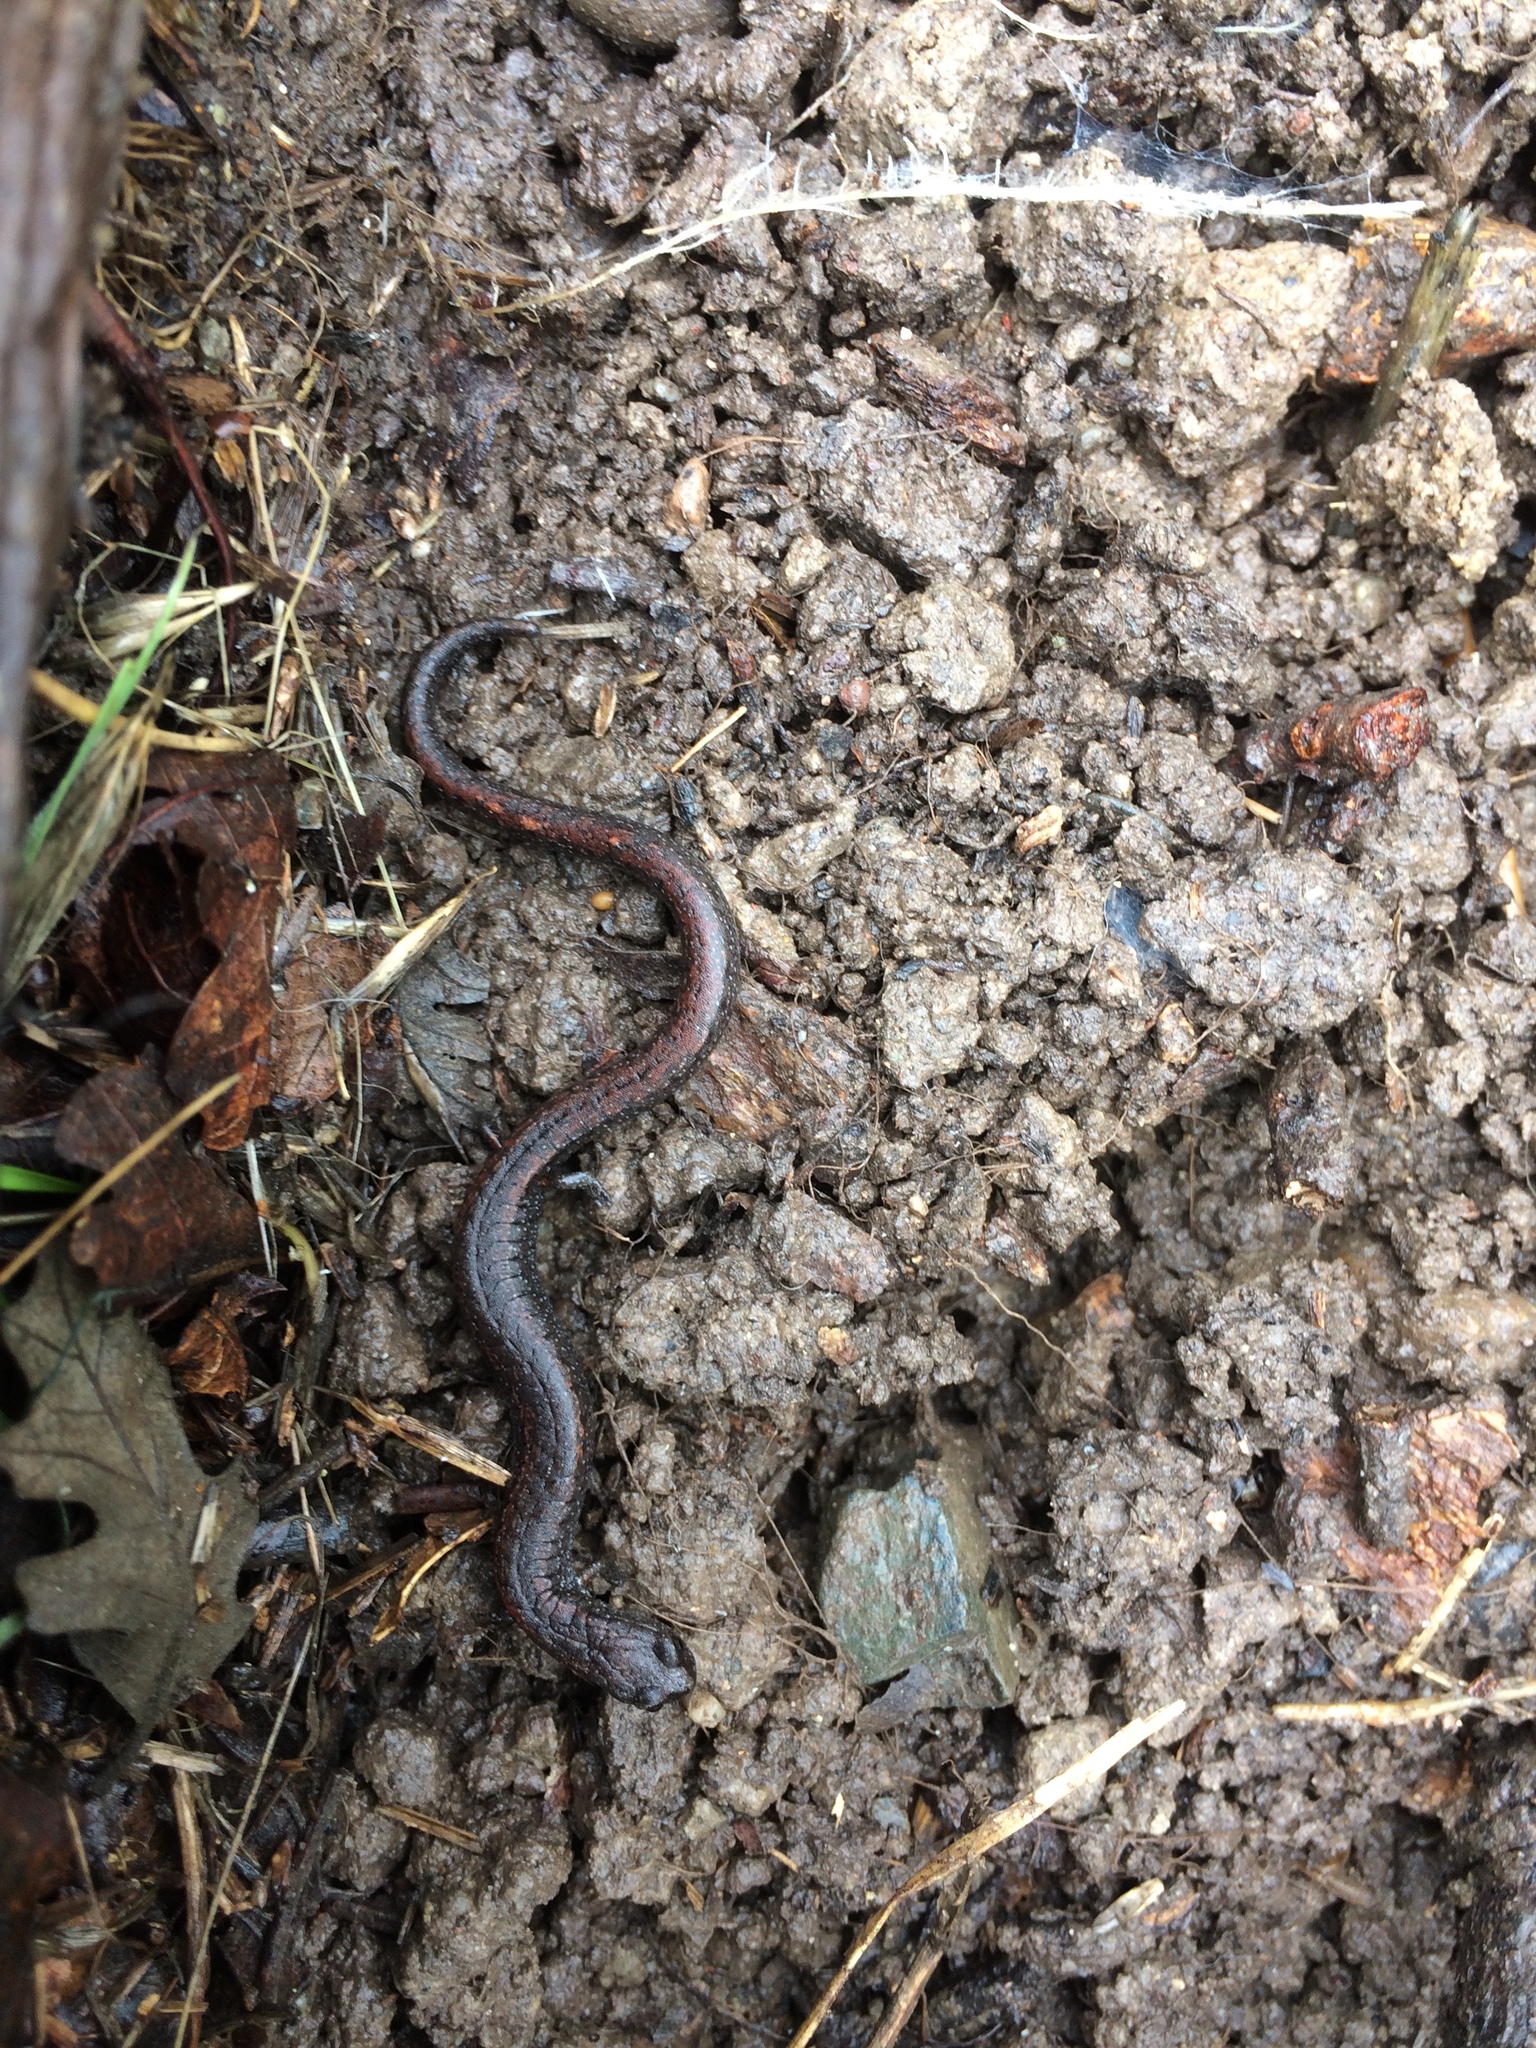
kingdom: Animalia
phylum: Chordata
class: Amphibia
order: Caudata
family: Plethodontidae
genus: Batrachoseps
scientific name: Batrachoseps attenuatus
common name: California slender salamander
